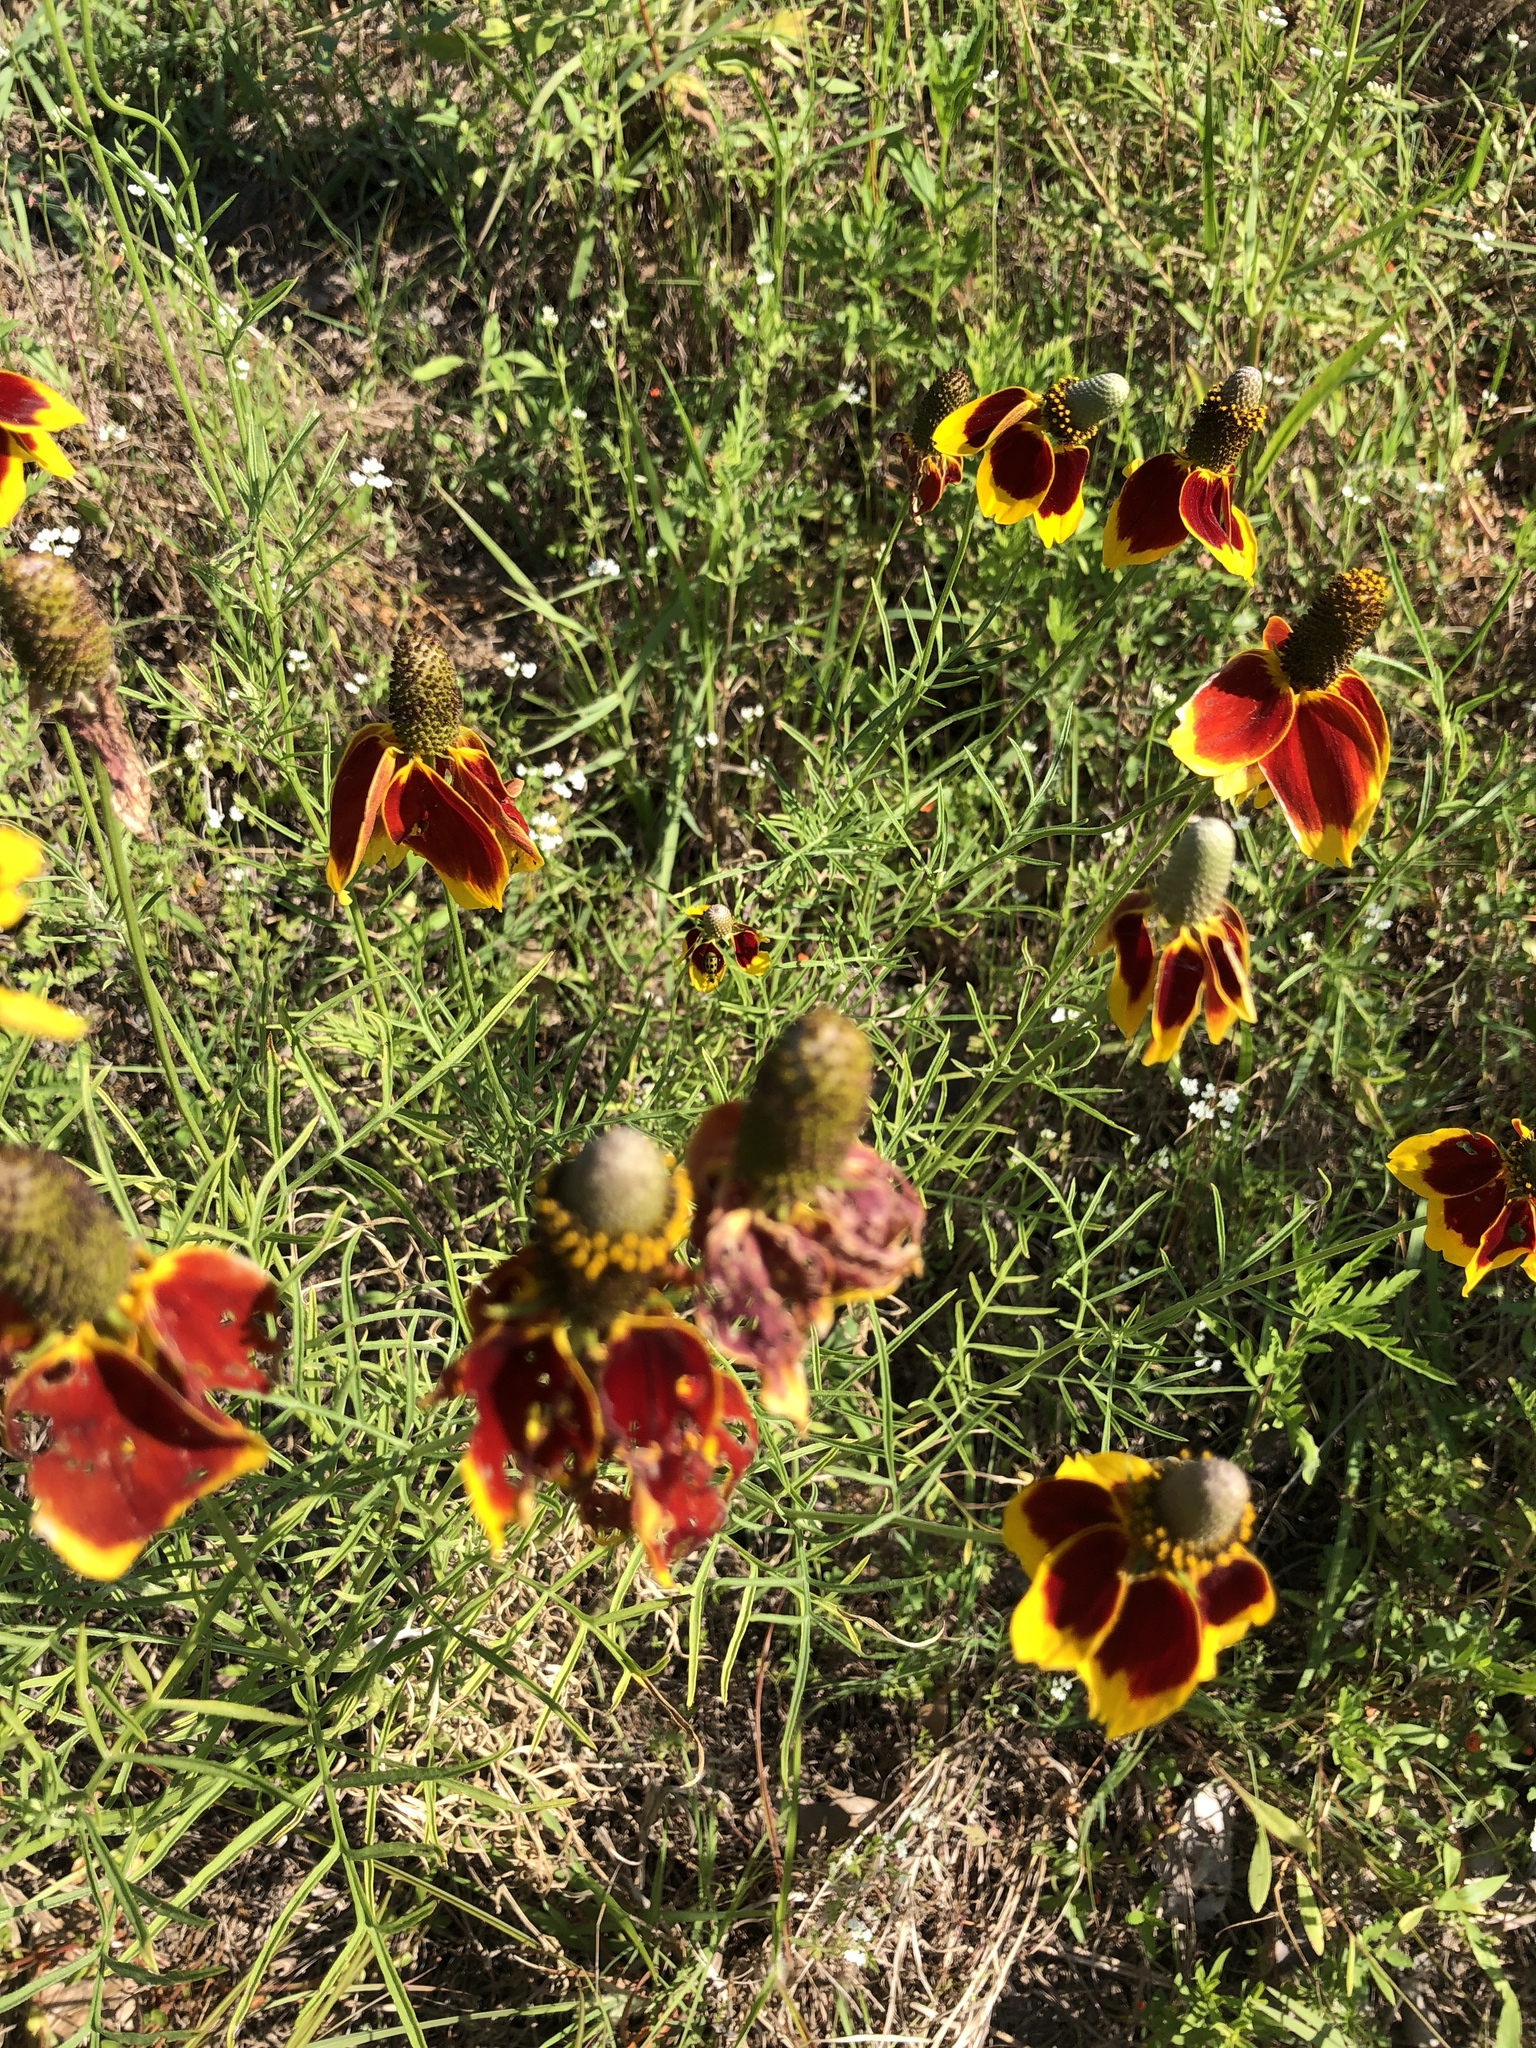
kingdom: Plantae
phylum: Tracheophyta
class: Magnoliopsida
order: Asterales
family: Asteraceae
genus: Ratibida
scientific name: Ratibida columnifera
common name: Prairie coneflower
